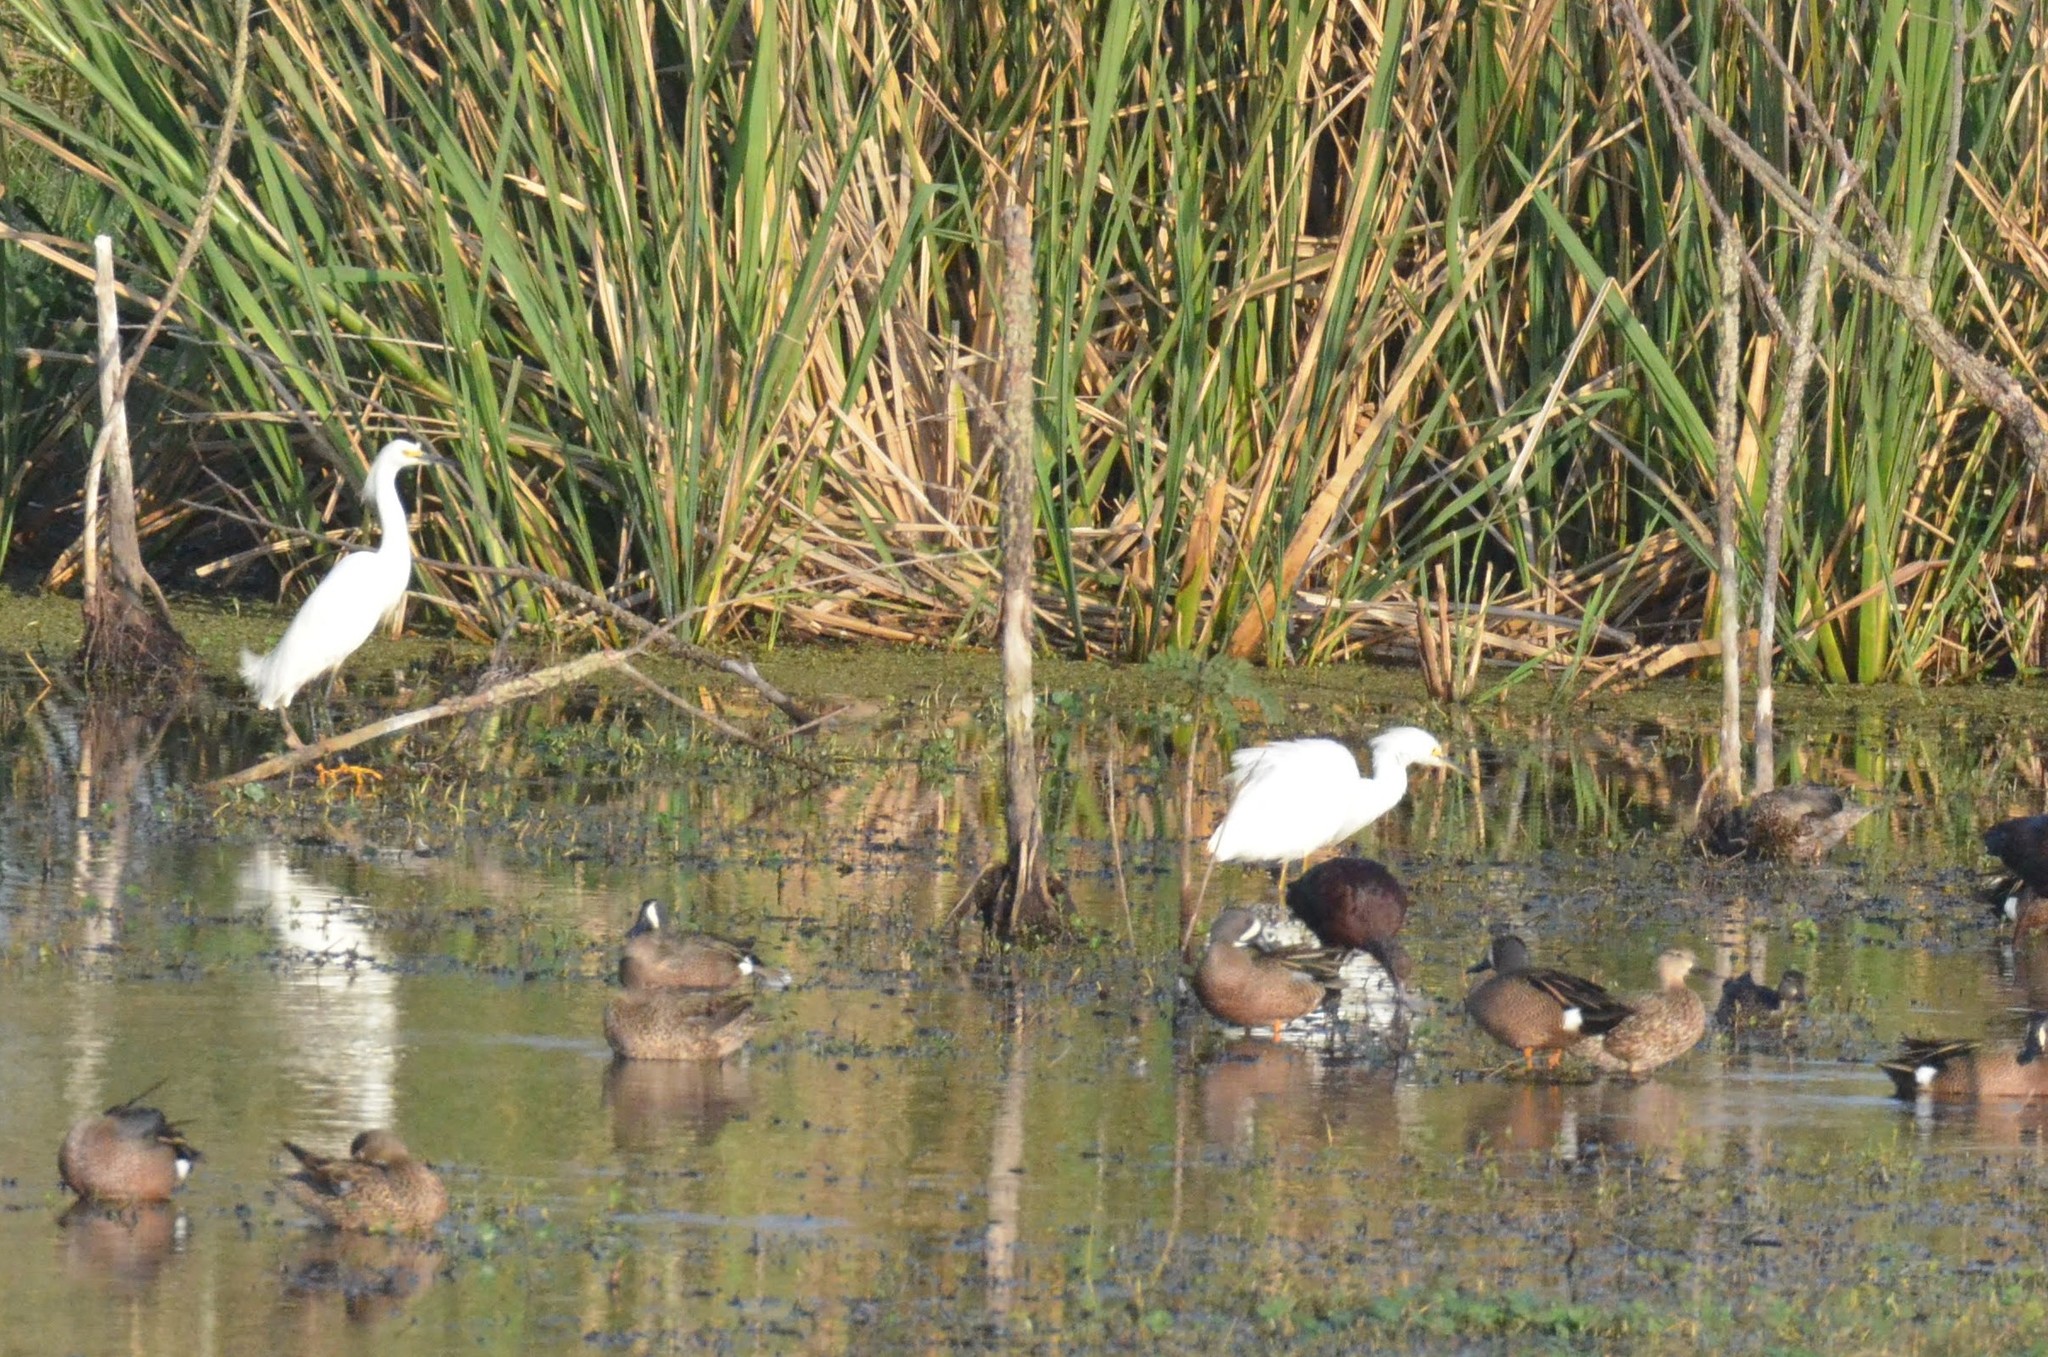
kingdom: Animalia
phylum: Chordata
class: Aves
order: Pelecaniformes
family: Ardeidae
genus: Egretta
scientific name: Egretta thula
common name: Snowy egret
